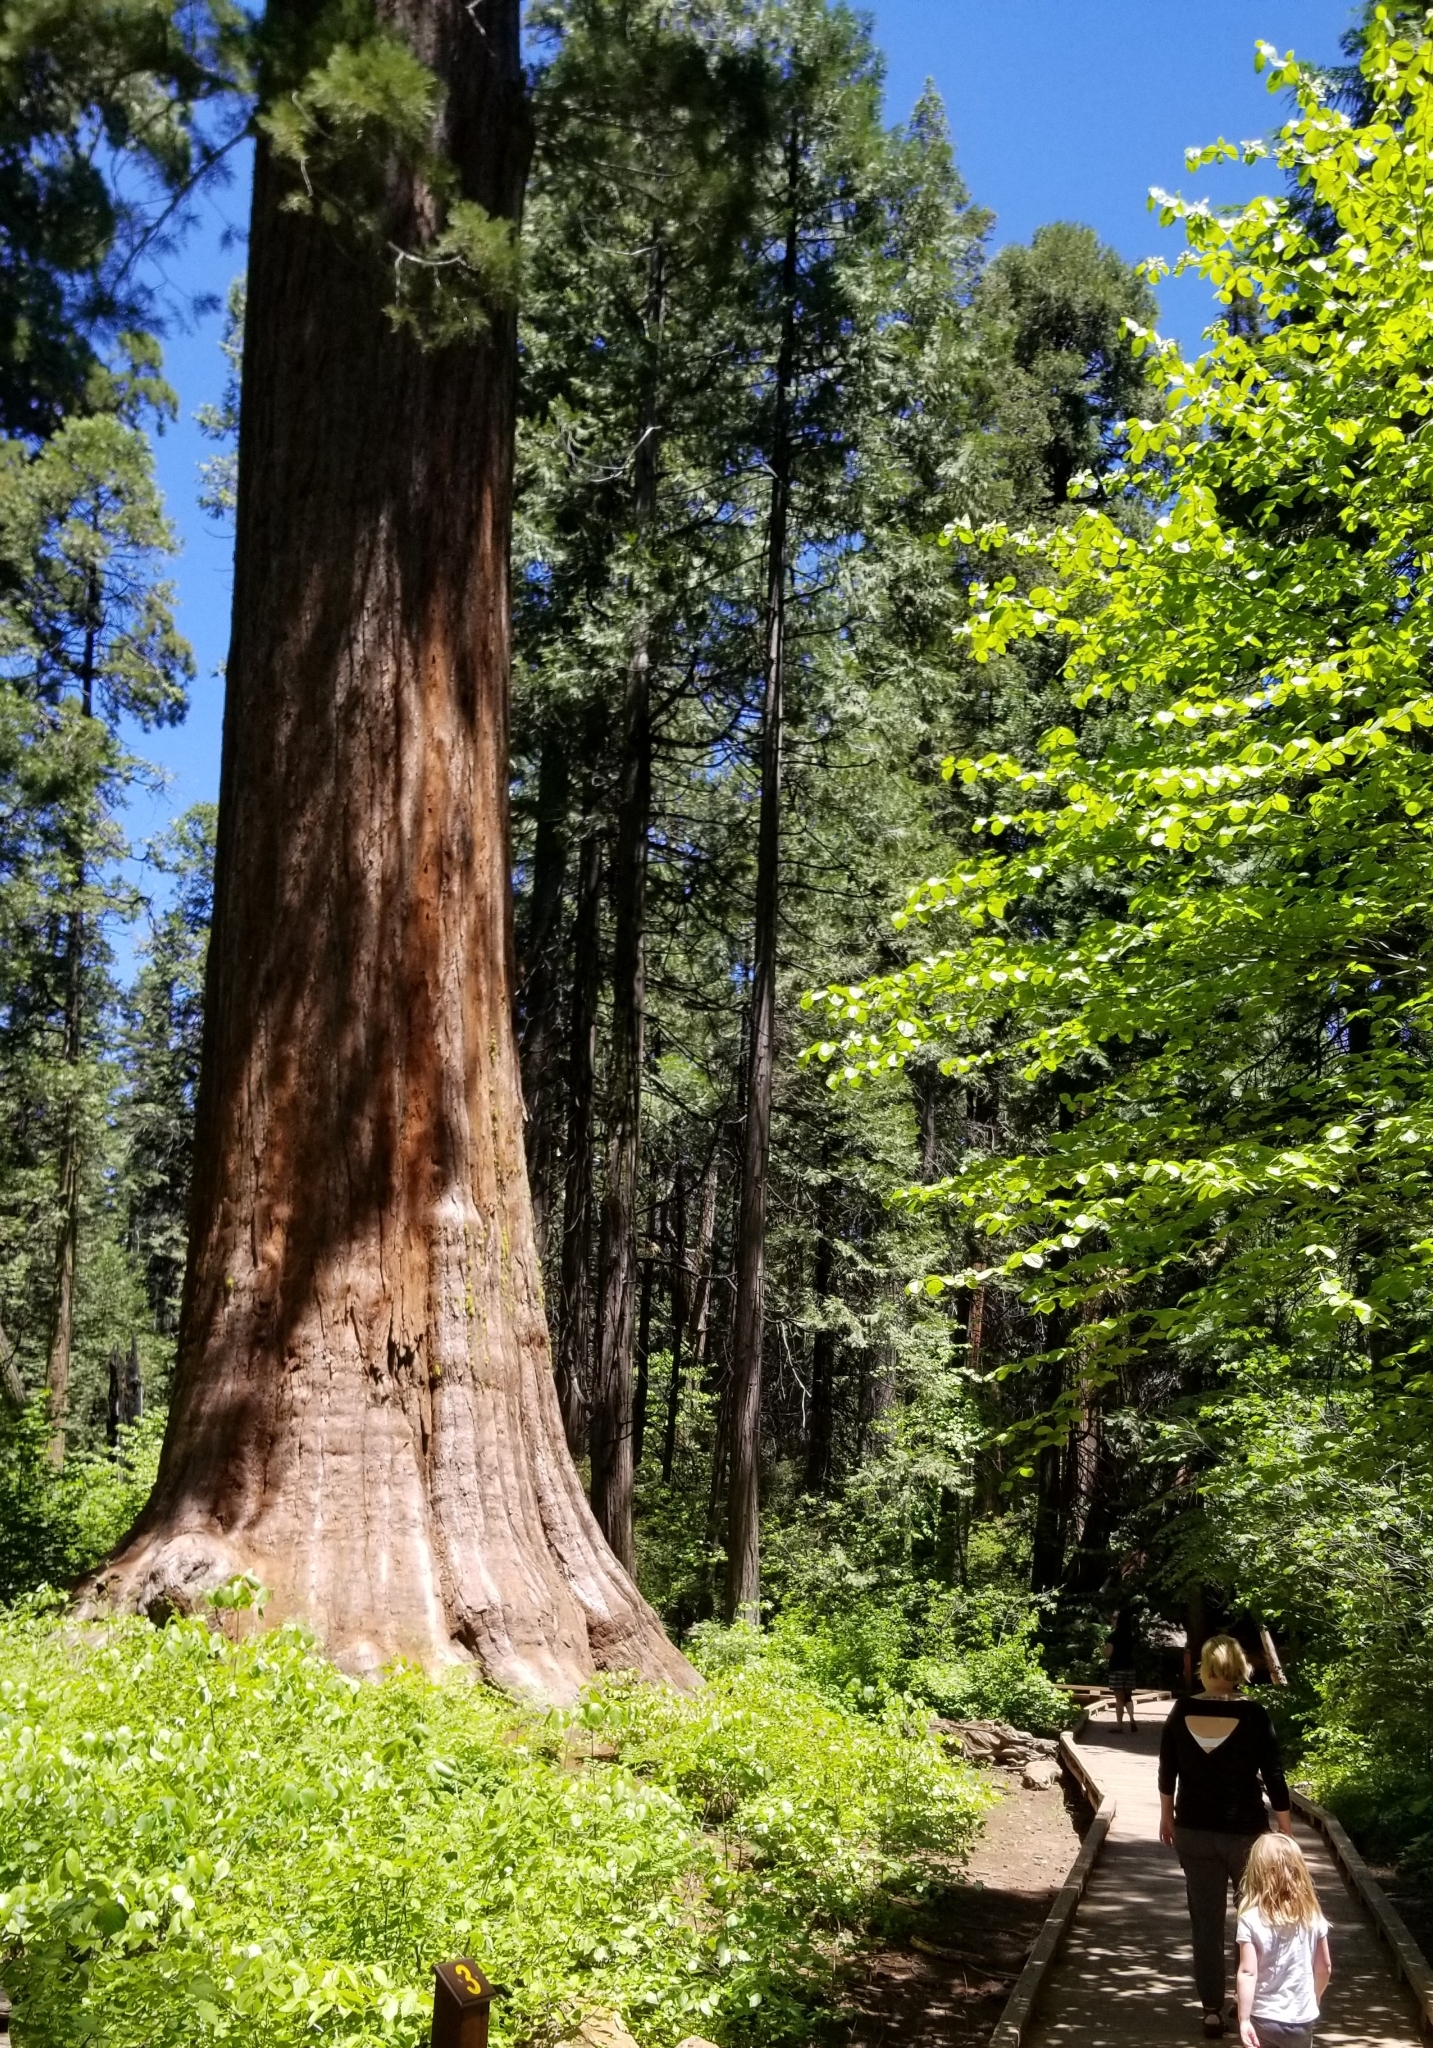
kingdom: Plantae
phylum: Tracheophyta
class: Pinopsida
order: Pinales
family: Cupressaceae
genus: Sequoiadendron
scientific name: Sequoiadendron giganteum
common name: Wellingtonia
